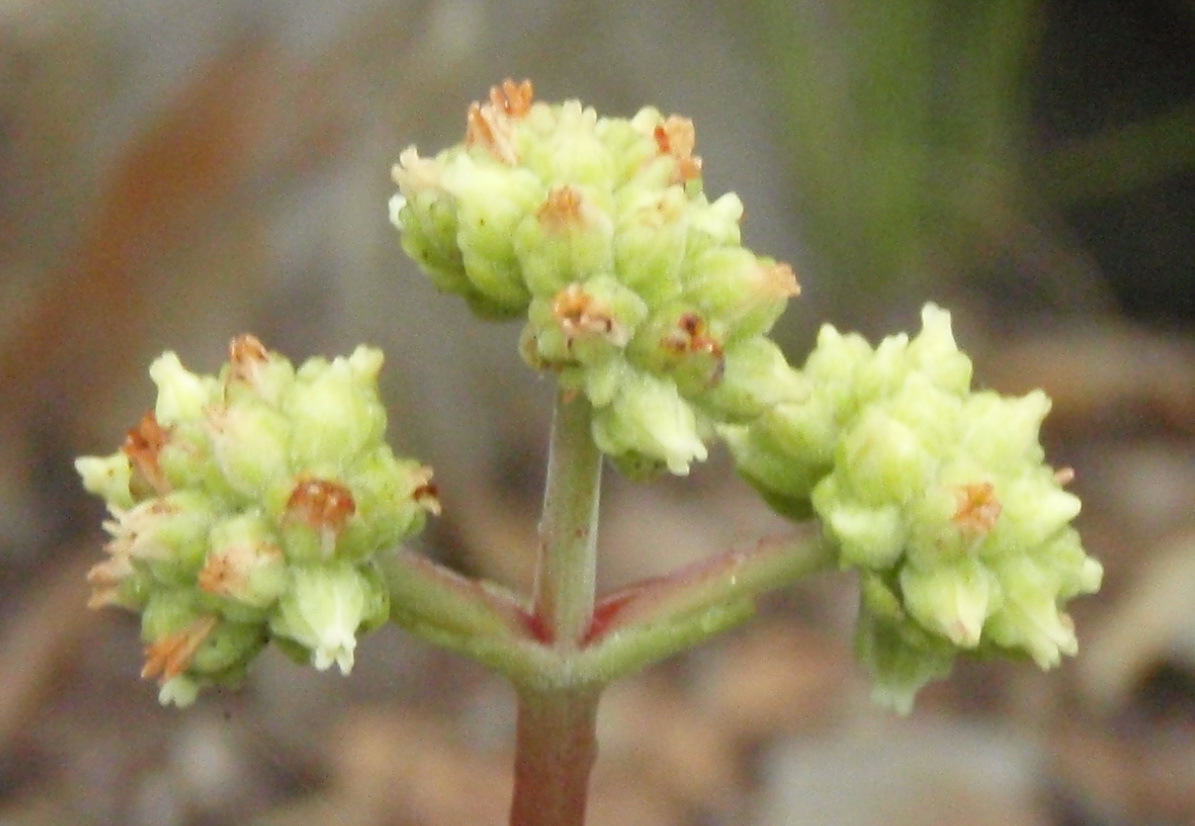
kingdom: Plantae
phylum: Tracheophyta
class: Magnoliopsida
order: Saxifragales
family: Crassulaceae
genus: Crassula
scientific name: Crassula atropurpurea
